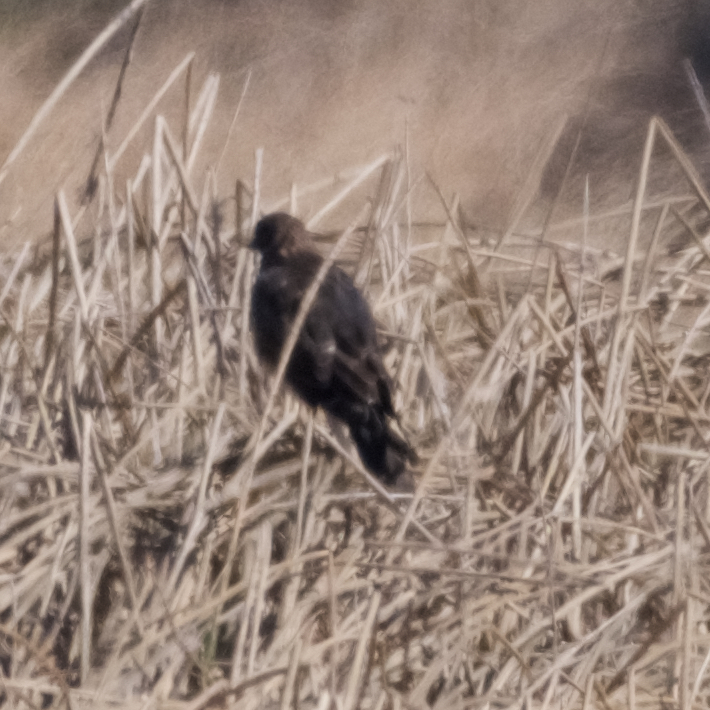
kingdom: Animalia
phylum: Chordata
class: Aves
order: Accipitriformes
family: Accipitridae
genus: Circus
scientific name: Circus cyaneus
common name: Hen harrier
